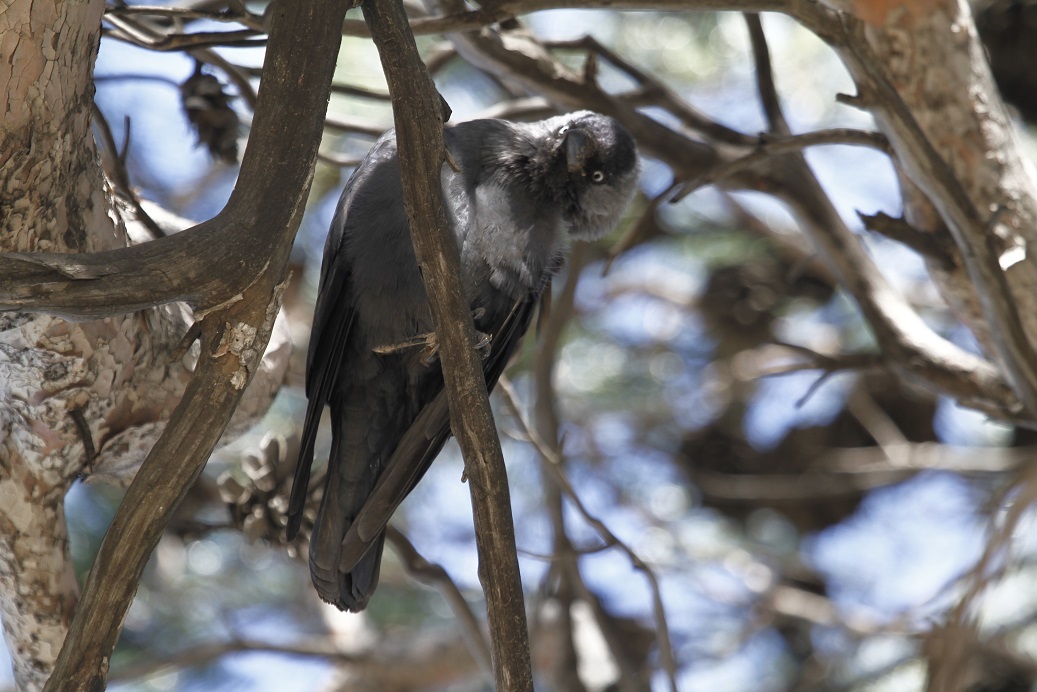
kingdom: Animalia
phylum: Chordata
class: Aves
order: Passeriformes
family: Corvidae
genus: Coloeus
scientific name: Coloeus monedula
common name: Western jackdaw
